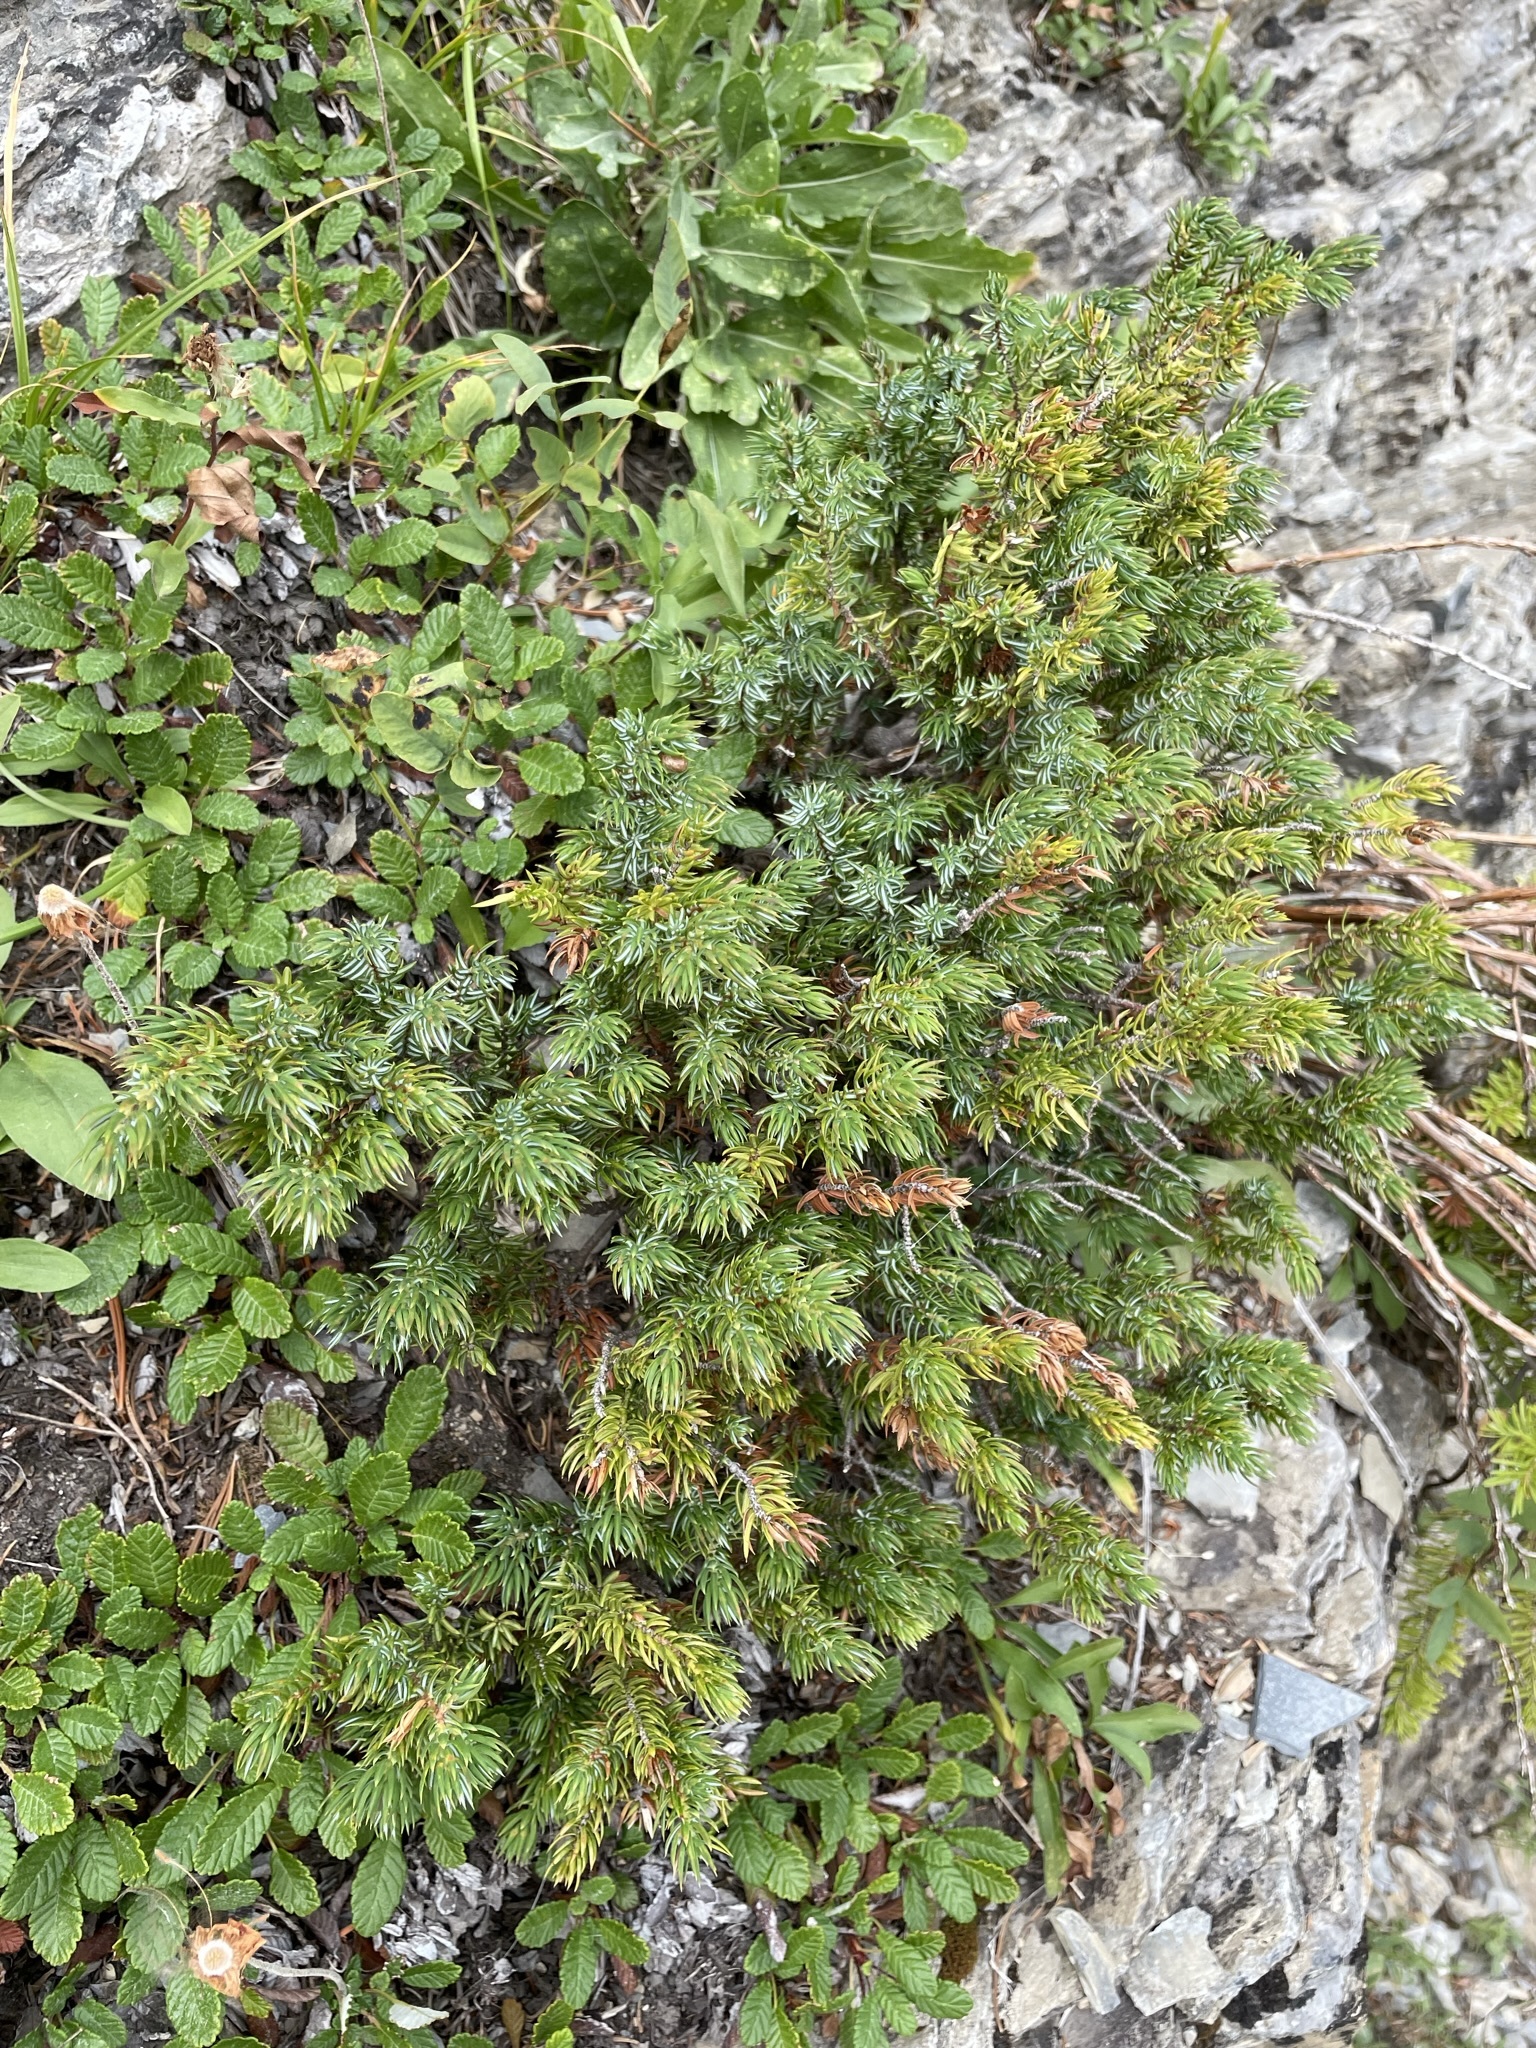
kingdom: Plantae
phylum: Tracheophyta
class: Pinopsida
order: Pinales
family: Cupressaceae
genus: Juniperus
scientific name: Juniperus communis
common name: Common juniper
